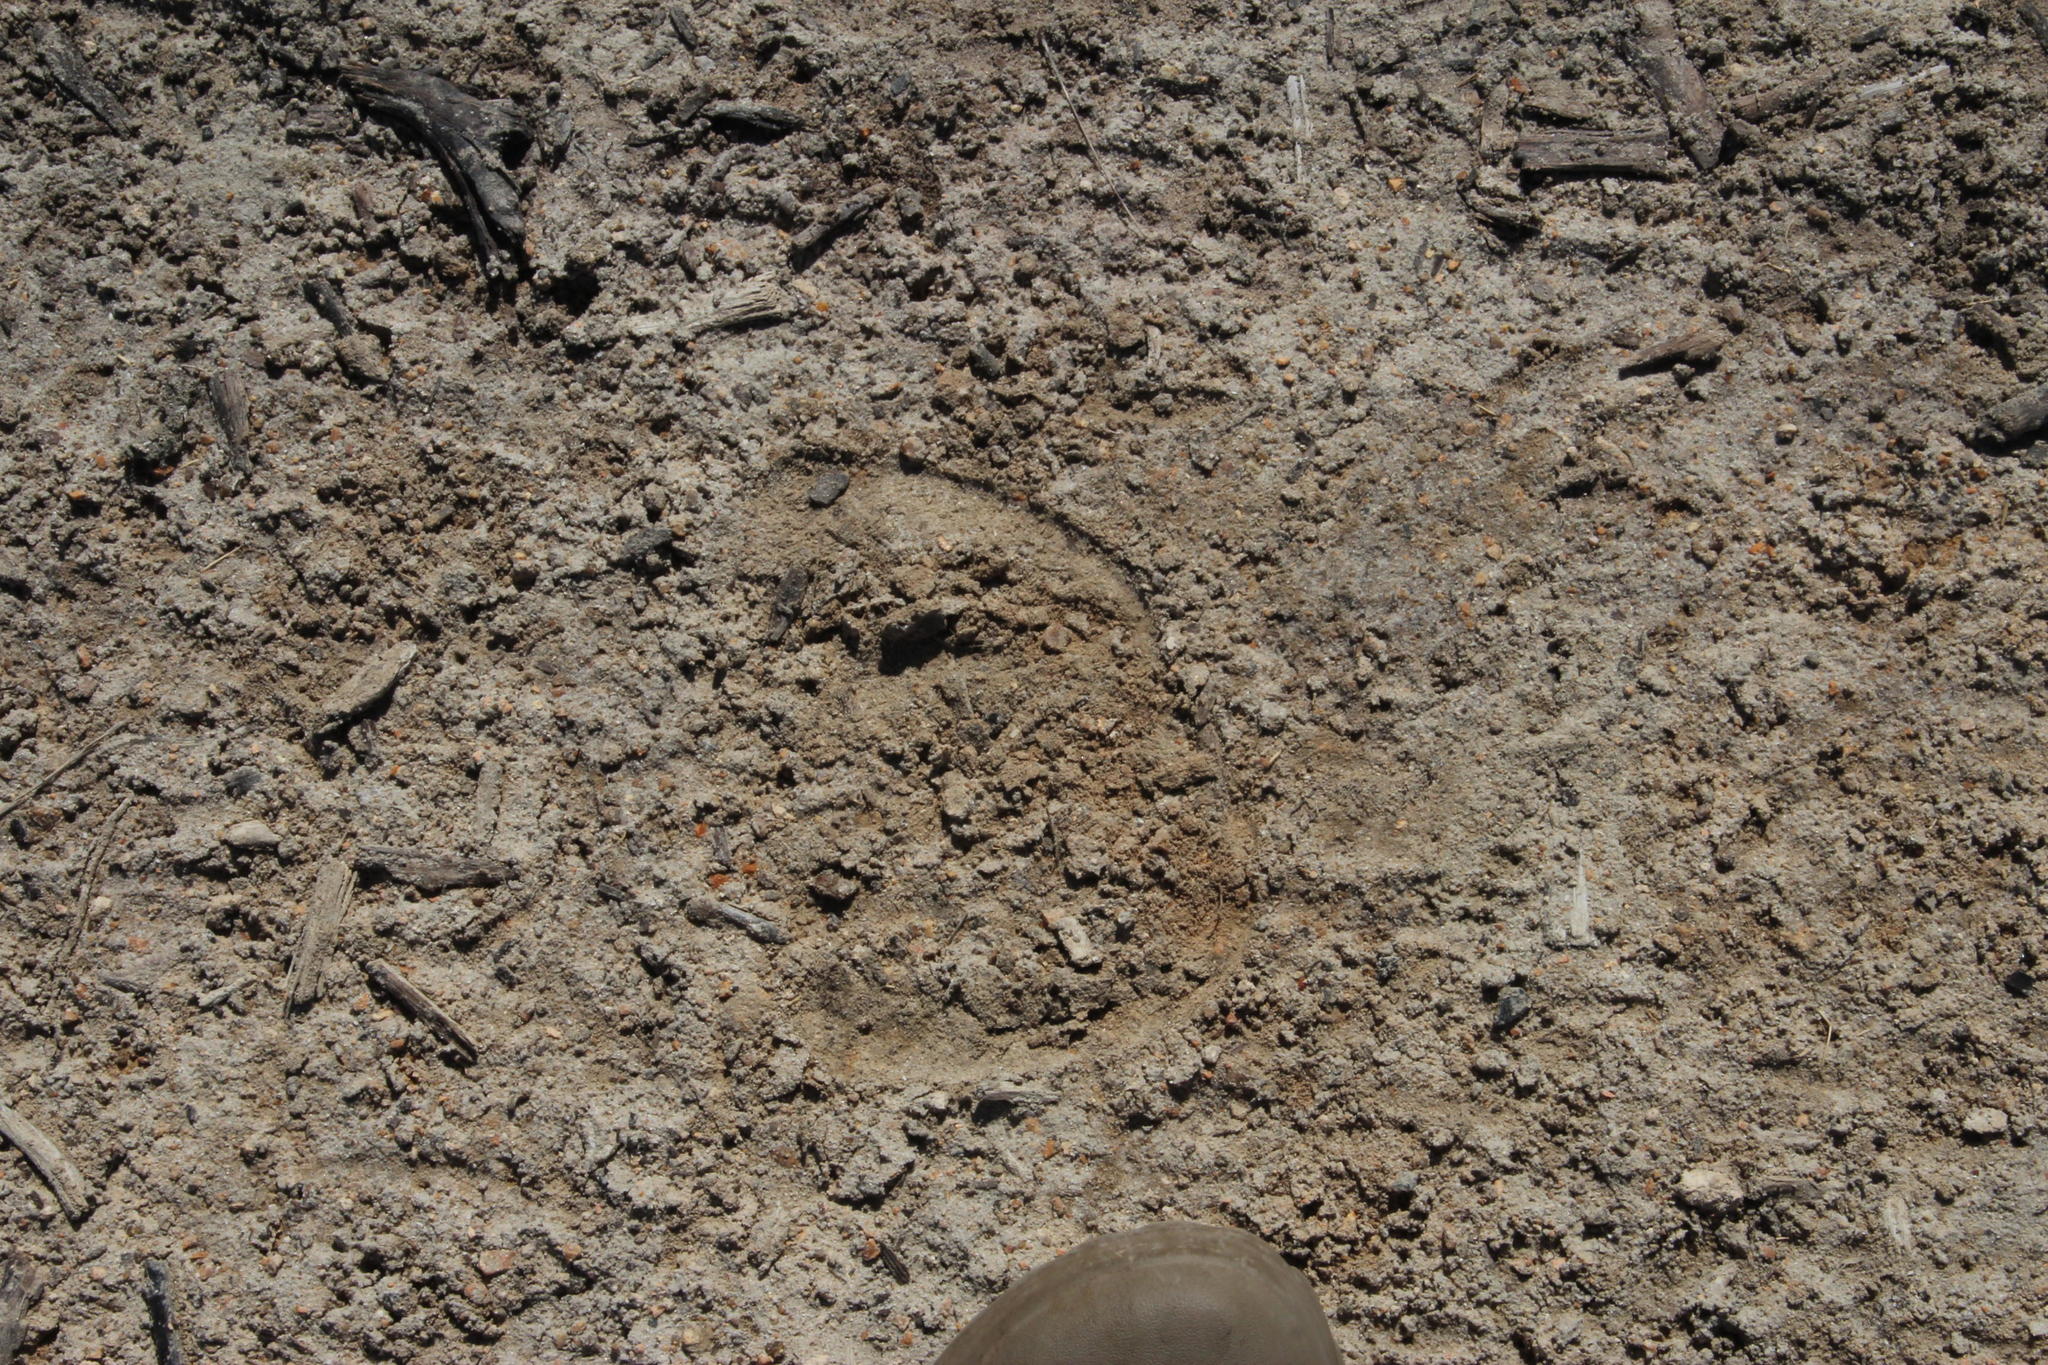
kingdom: Animalia
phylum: Chordata
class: Mammalia
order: Artiodactyla
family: Bovidae
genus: Taurotragus
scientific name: Taurotragus oryx
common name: Common eland
